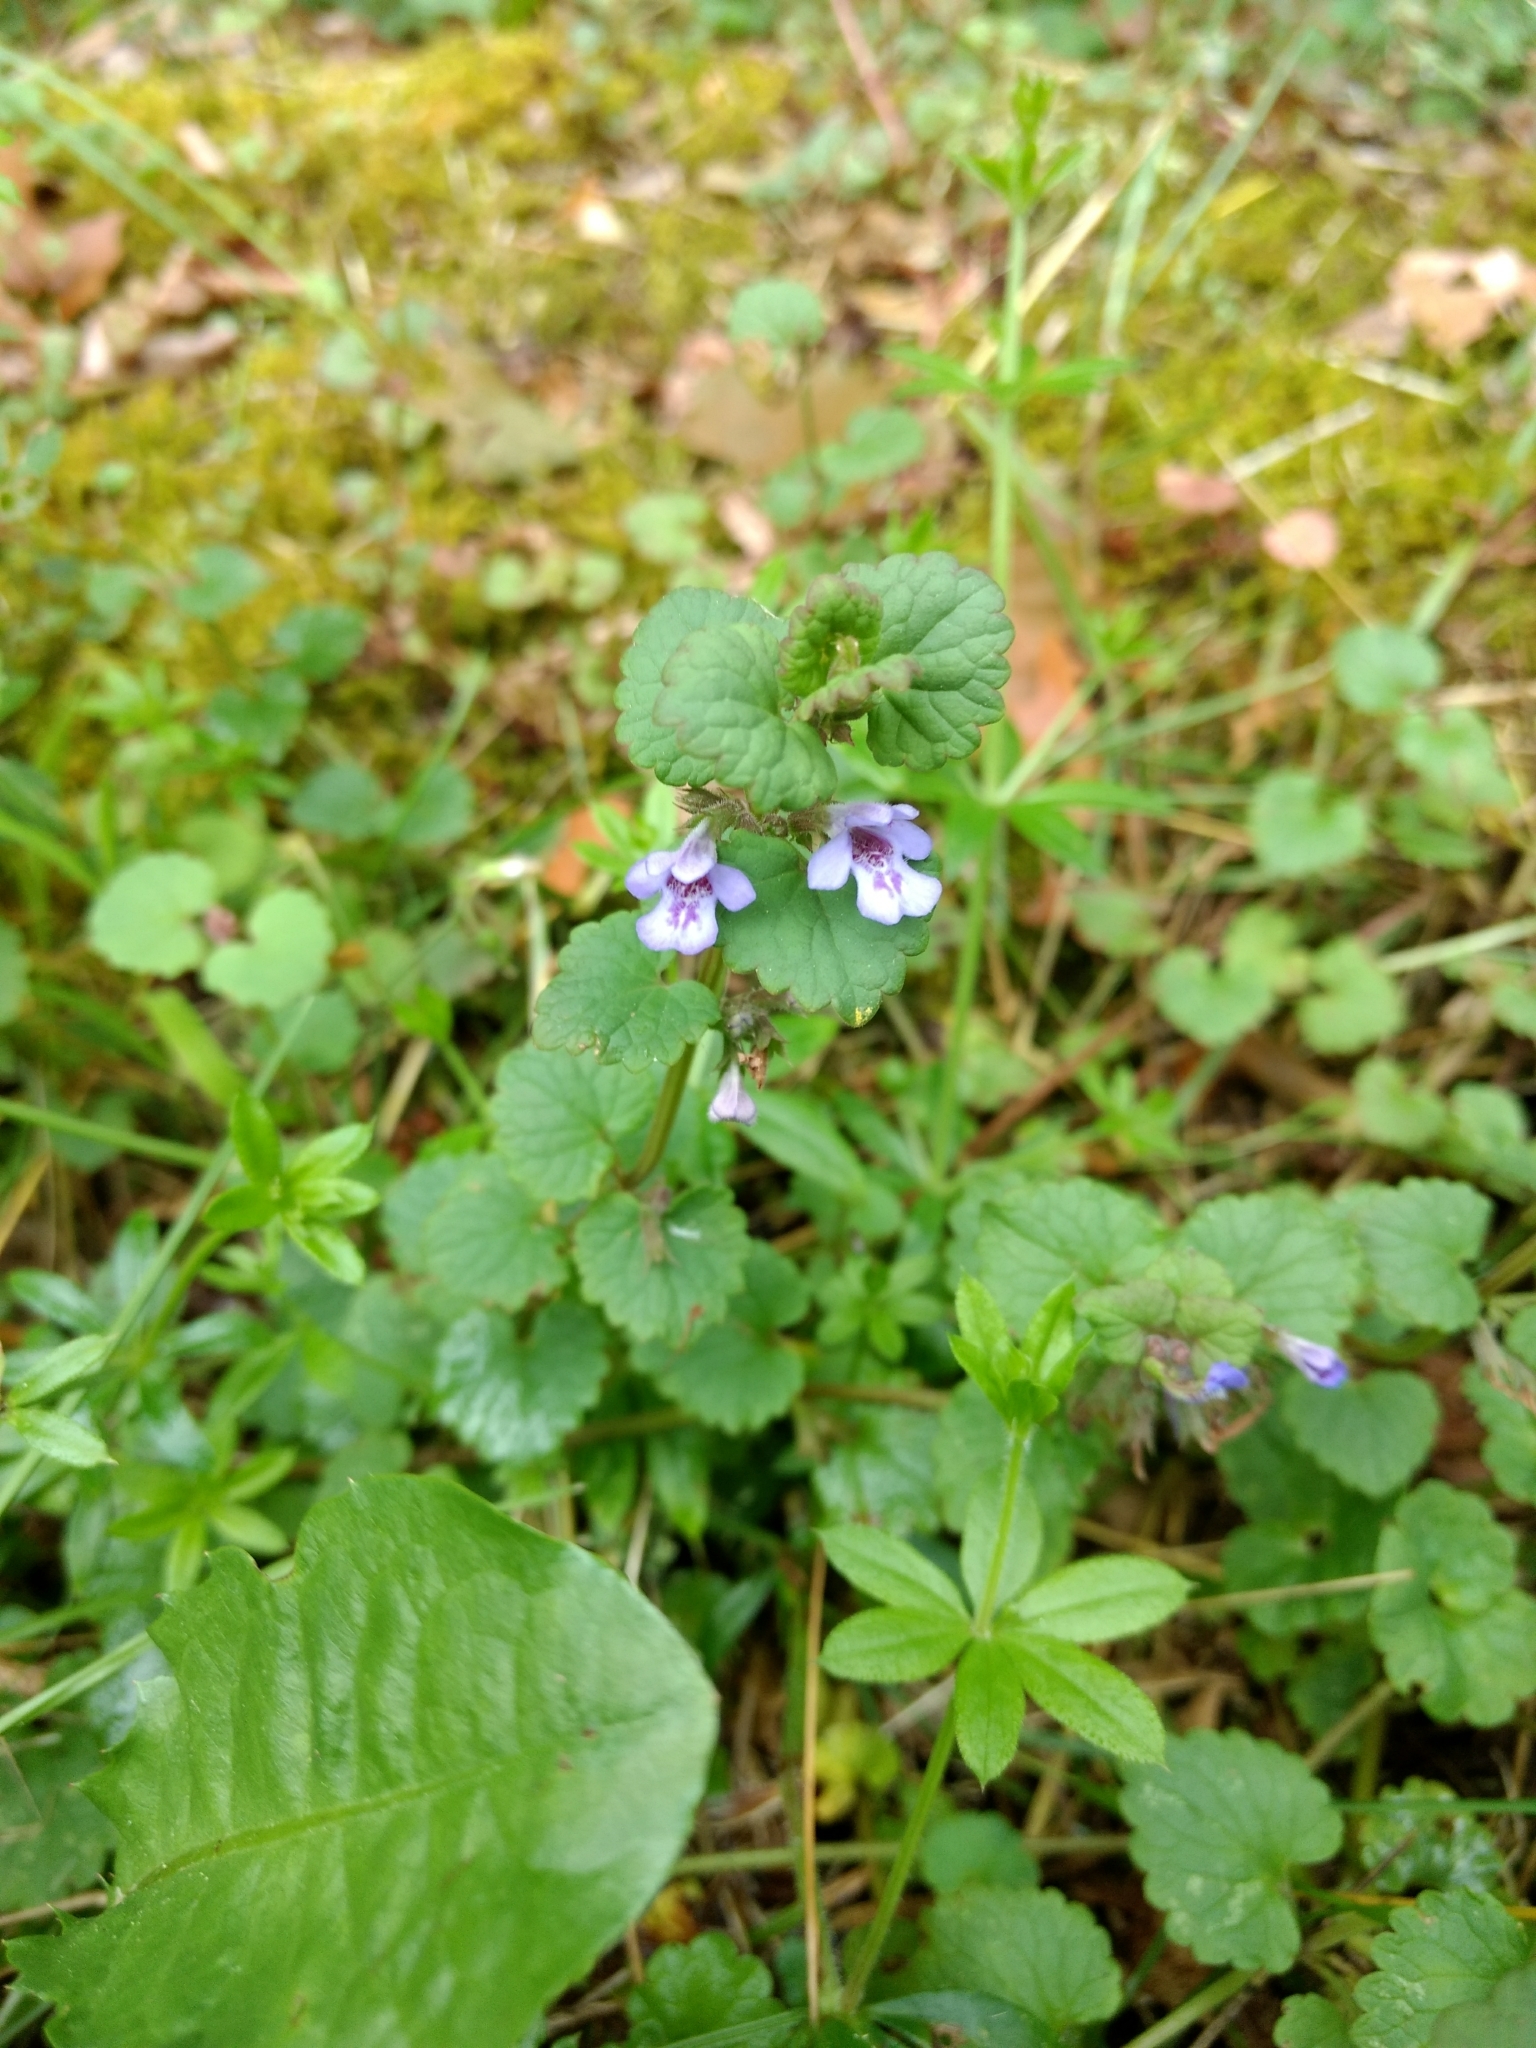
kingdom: Plantae
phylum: Tracheophyta
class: Magnoliopsida
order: Lamiales
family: Lamiaceae
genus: Glechoma
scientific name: Glechoma hederacea
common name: Ground ivy
